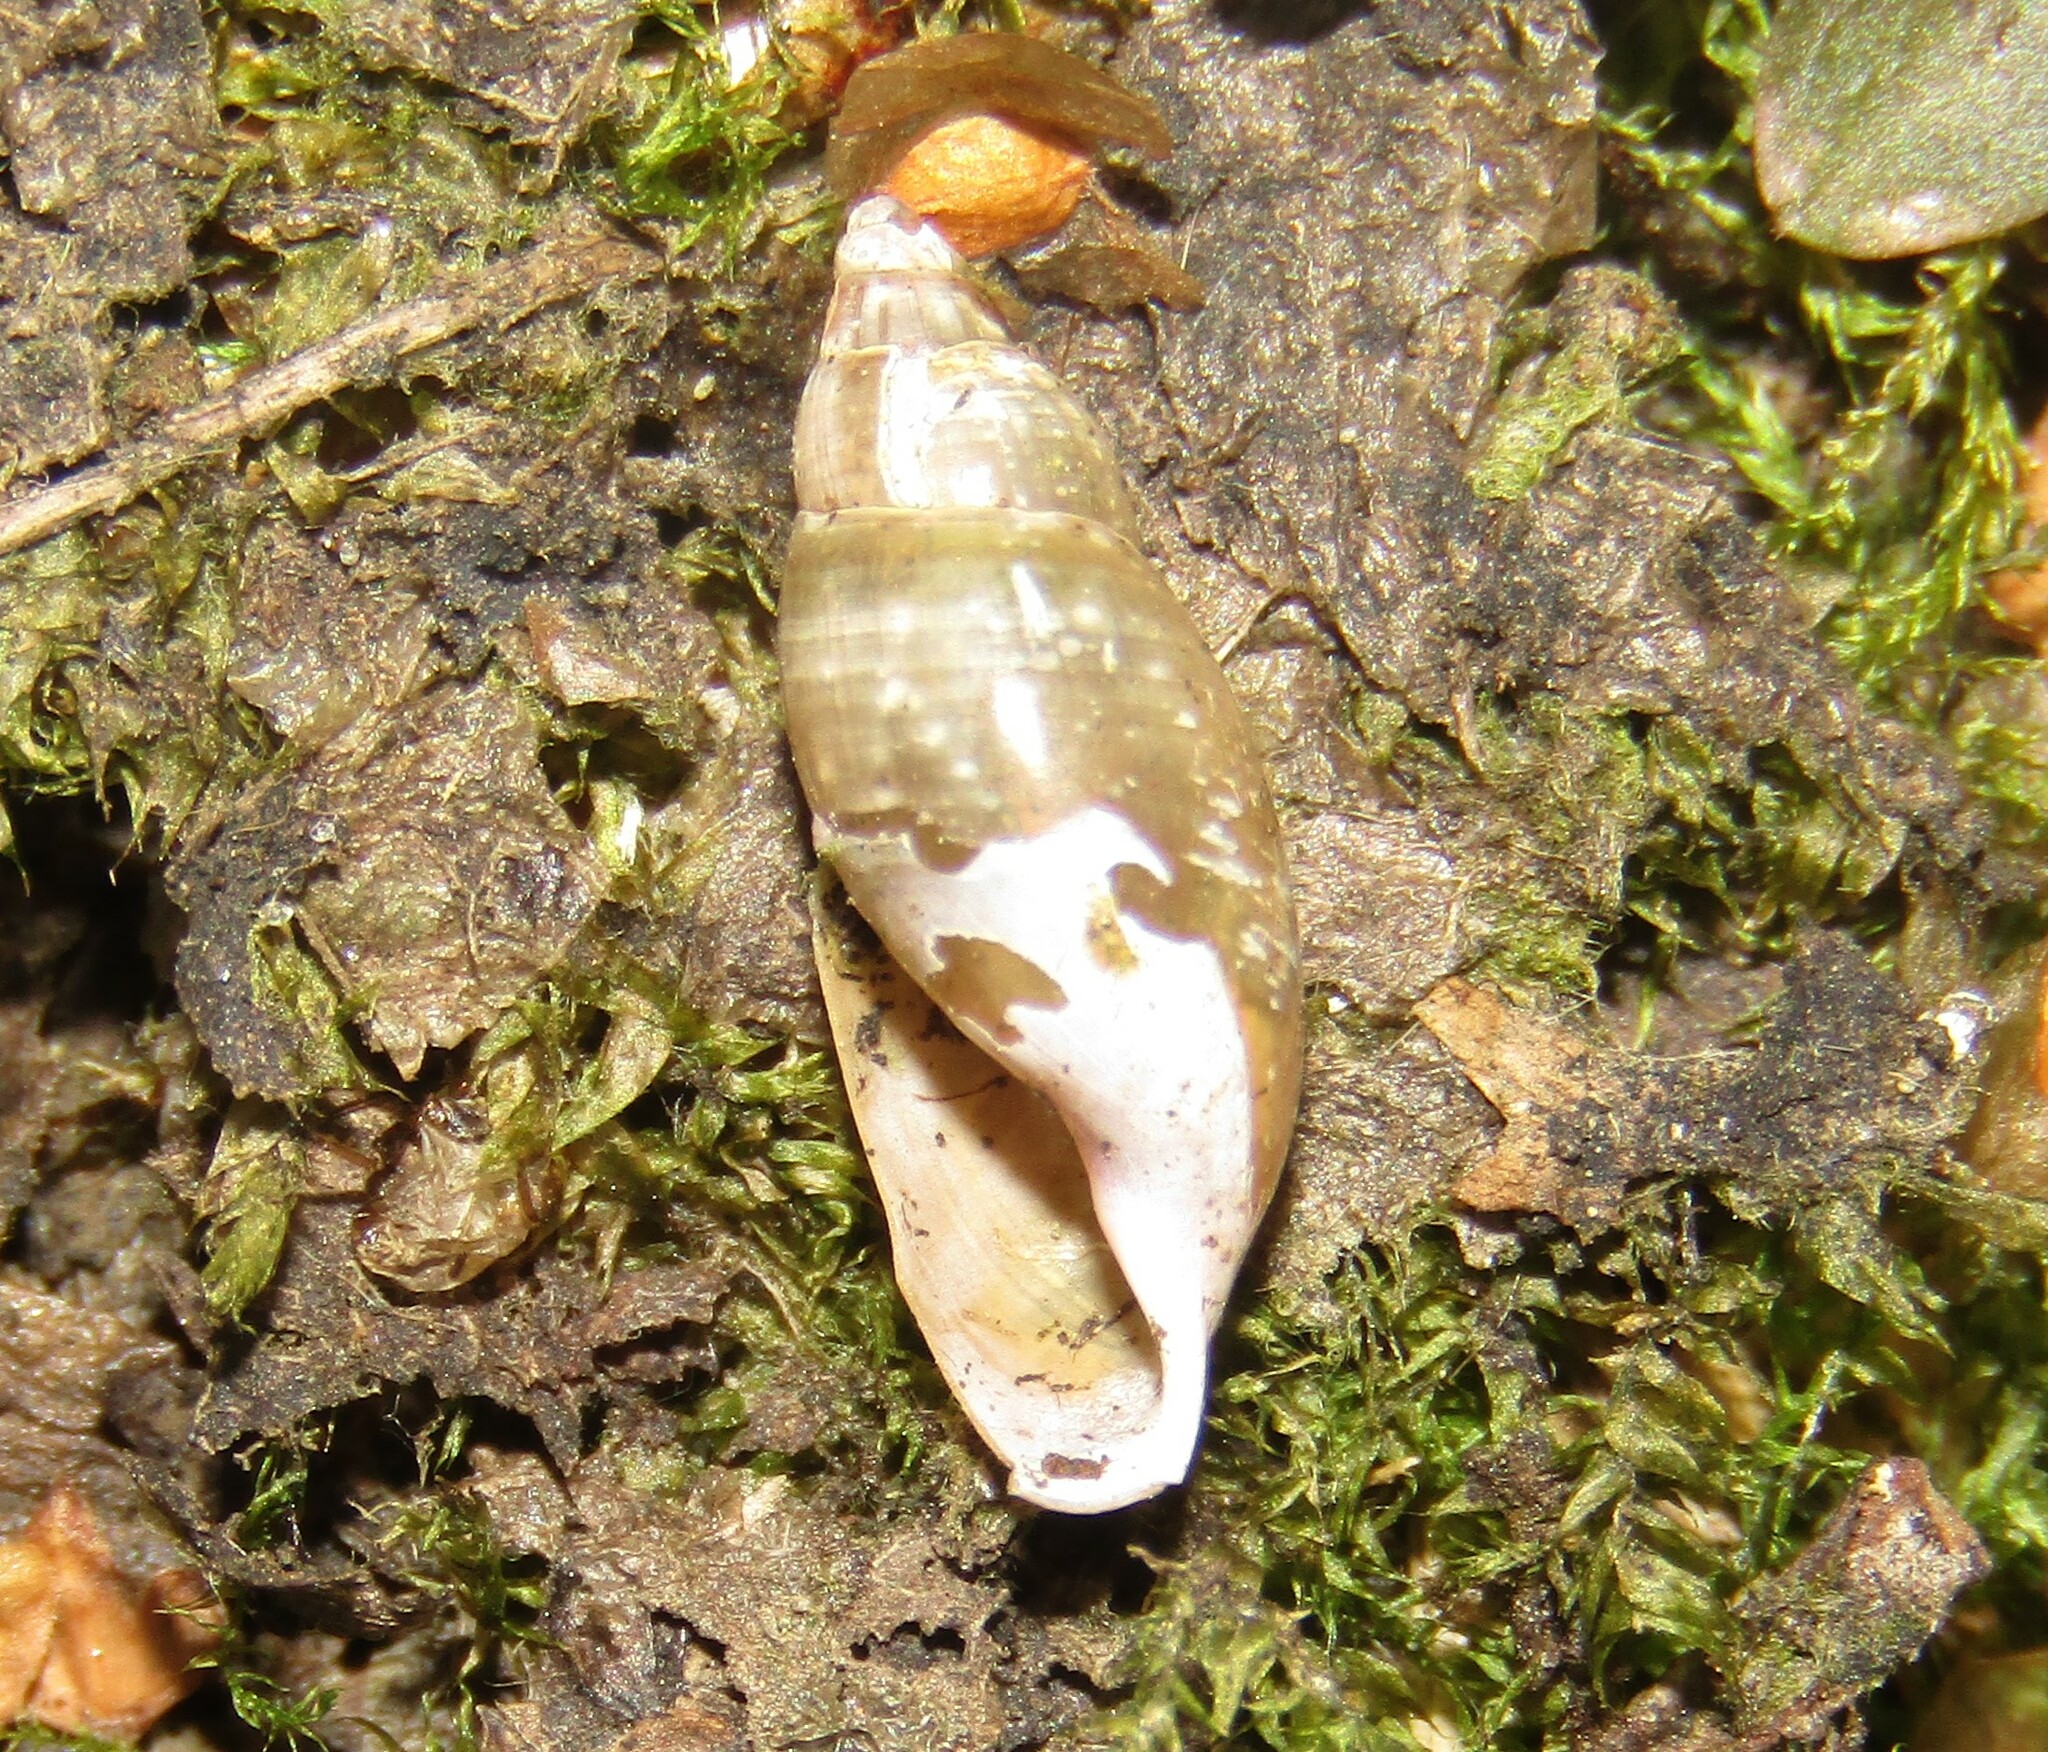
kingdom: Animalia
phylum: Mollusca
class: Gastropoda
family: Physidae
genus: Aplexa
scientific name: Aplexa hypnorum
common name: Moss bladder snail
